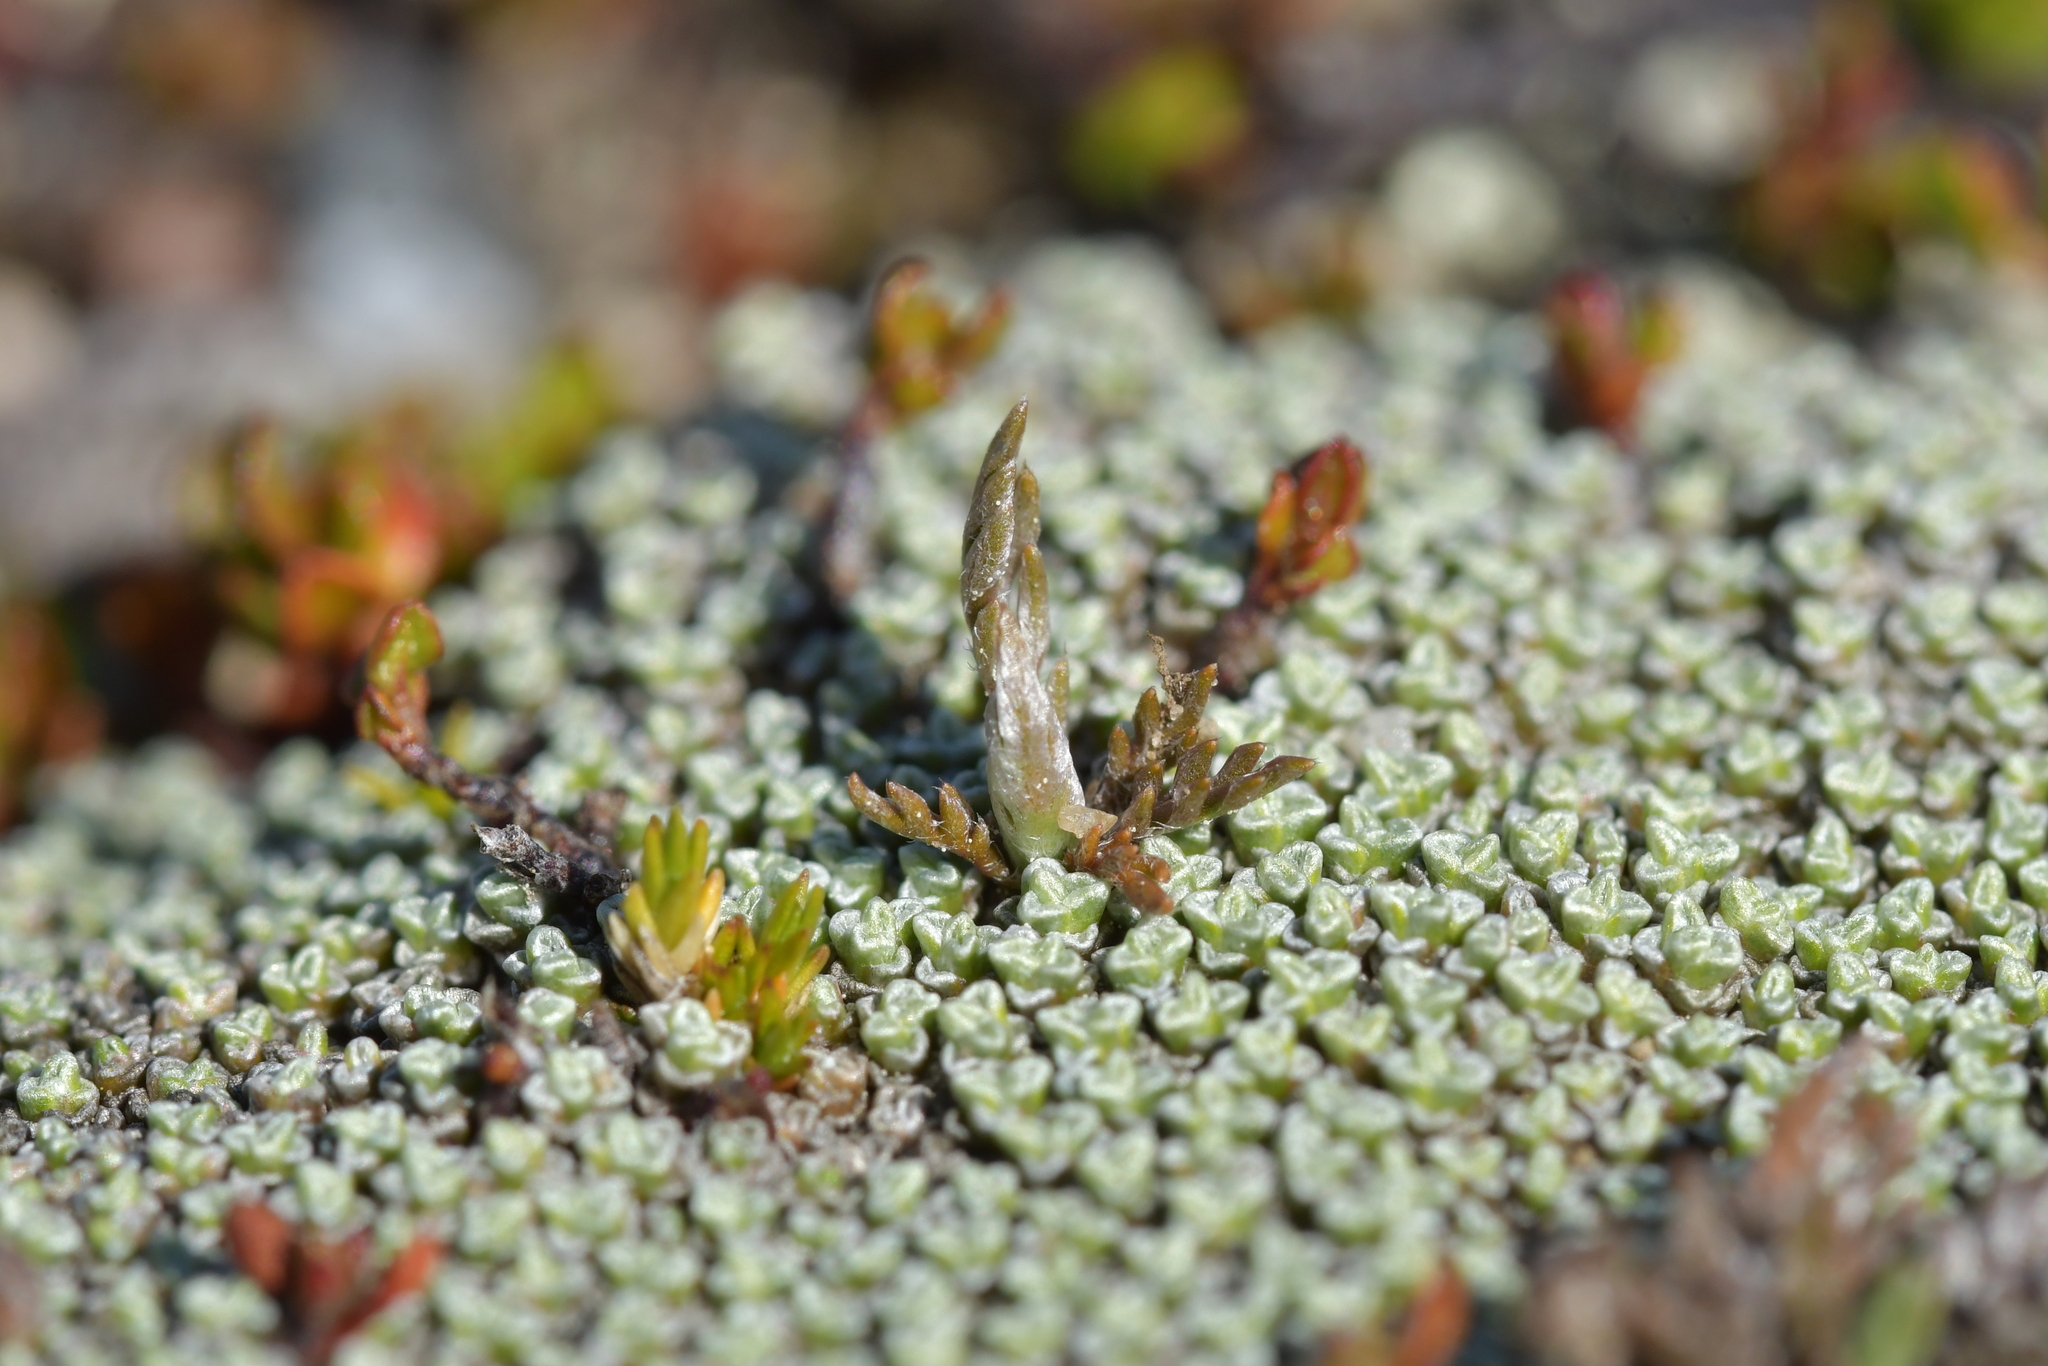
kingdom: Plantae
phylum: Tracheophyta
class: Magnoliopsida
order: Asterales
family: Asteraceae
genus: Leptinella
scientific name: Leptinella conjuncta
